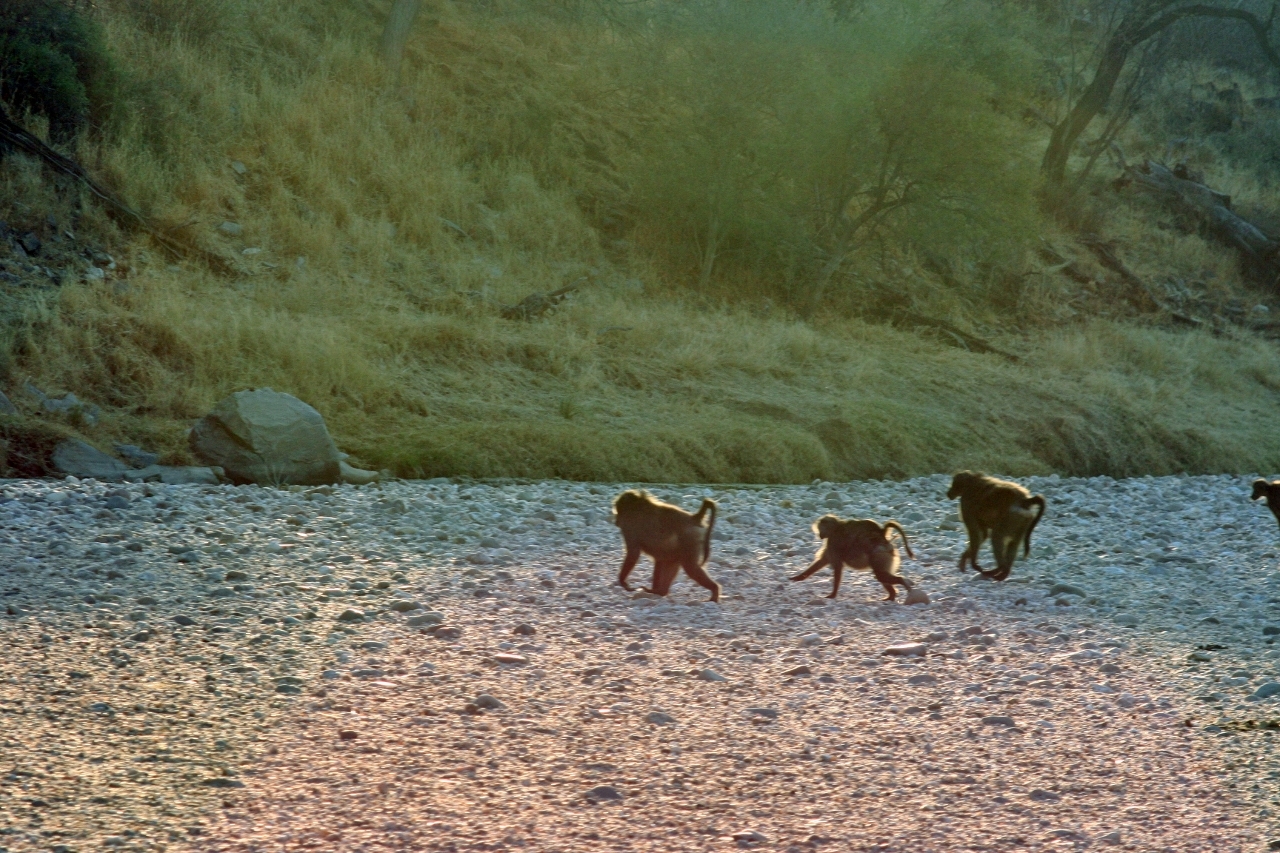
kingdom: Animalia
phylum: Chordata
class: Mammalia
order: Primates
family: Cercopithecidae
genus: Papio
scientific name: Papio ursinus
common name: Chacma baboon
